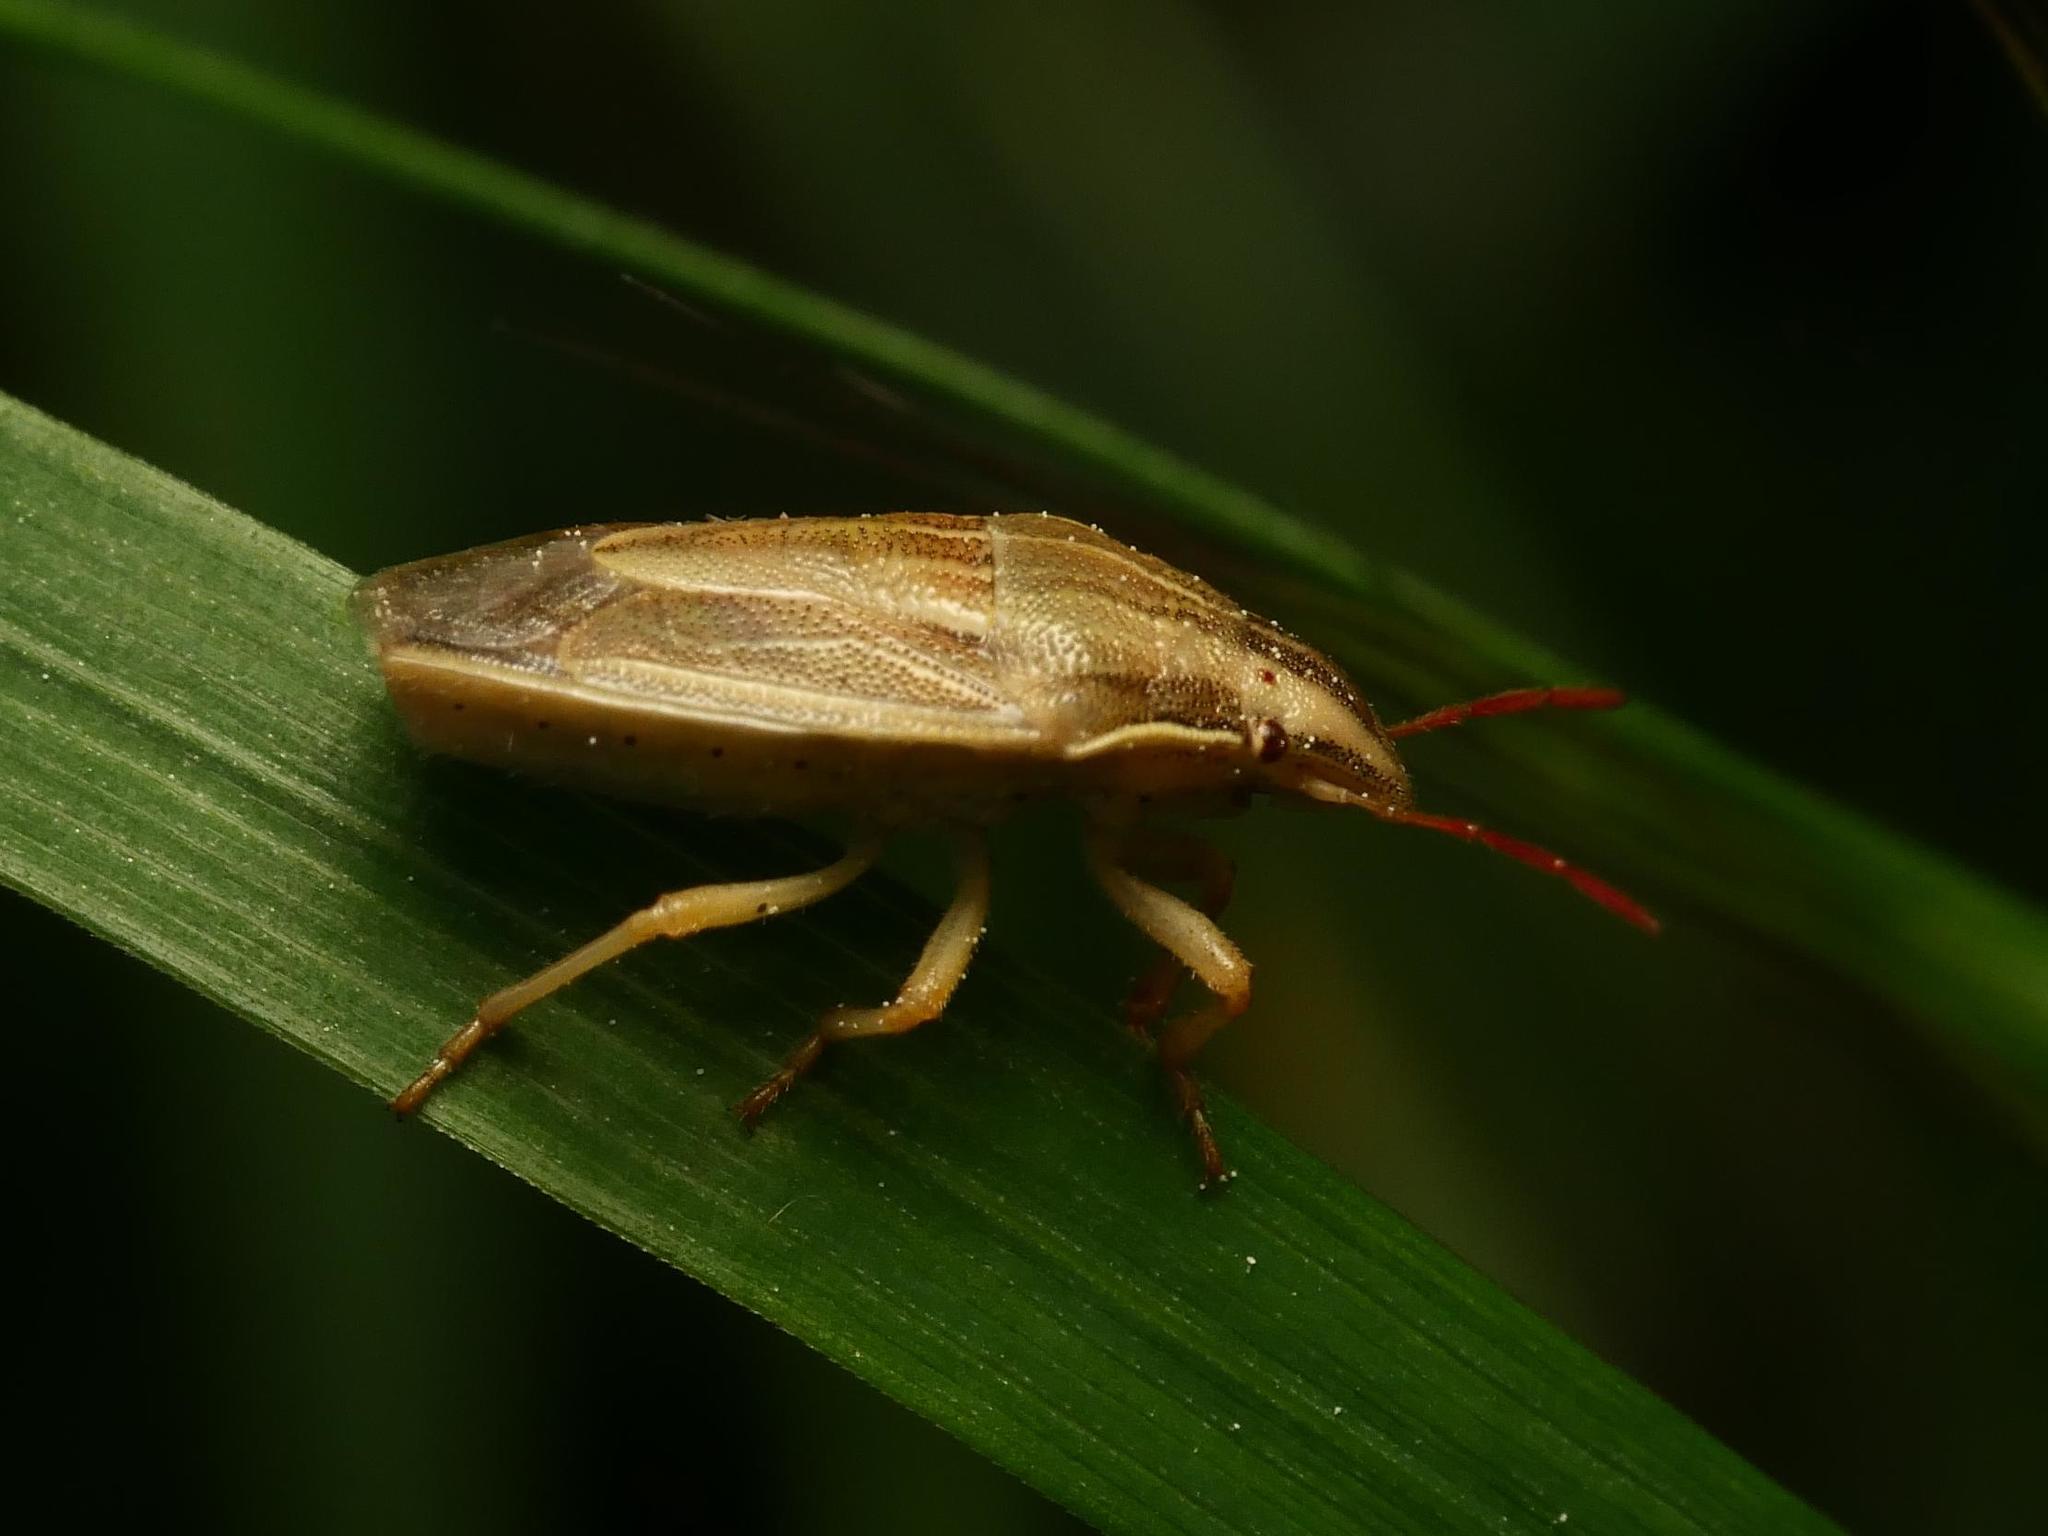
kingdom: Animalia
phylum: Arthropoda
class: Insecta
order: Hemiptera
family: Pentatomidae
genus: Aelia
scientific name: Aelia acuminata
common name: Bishop's mitre
